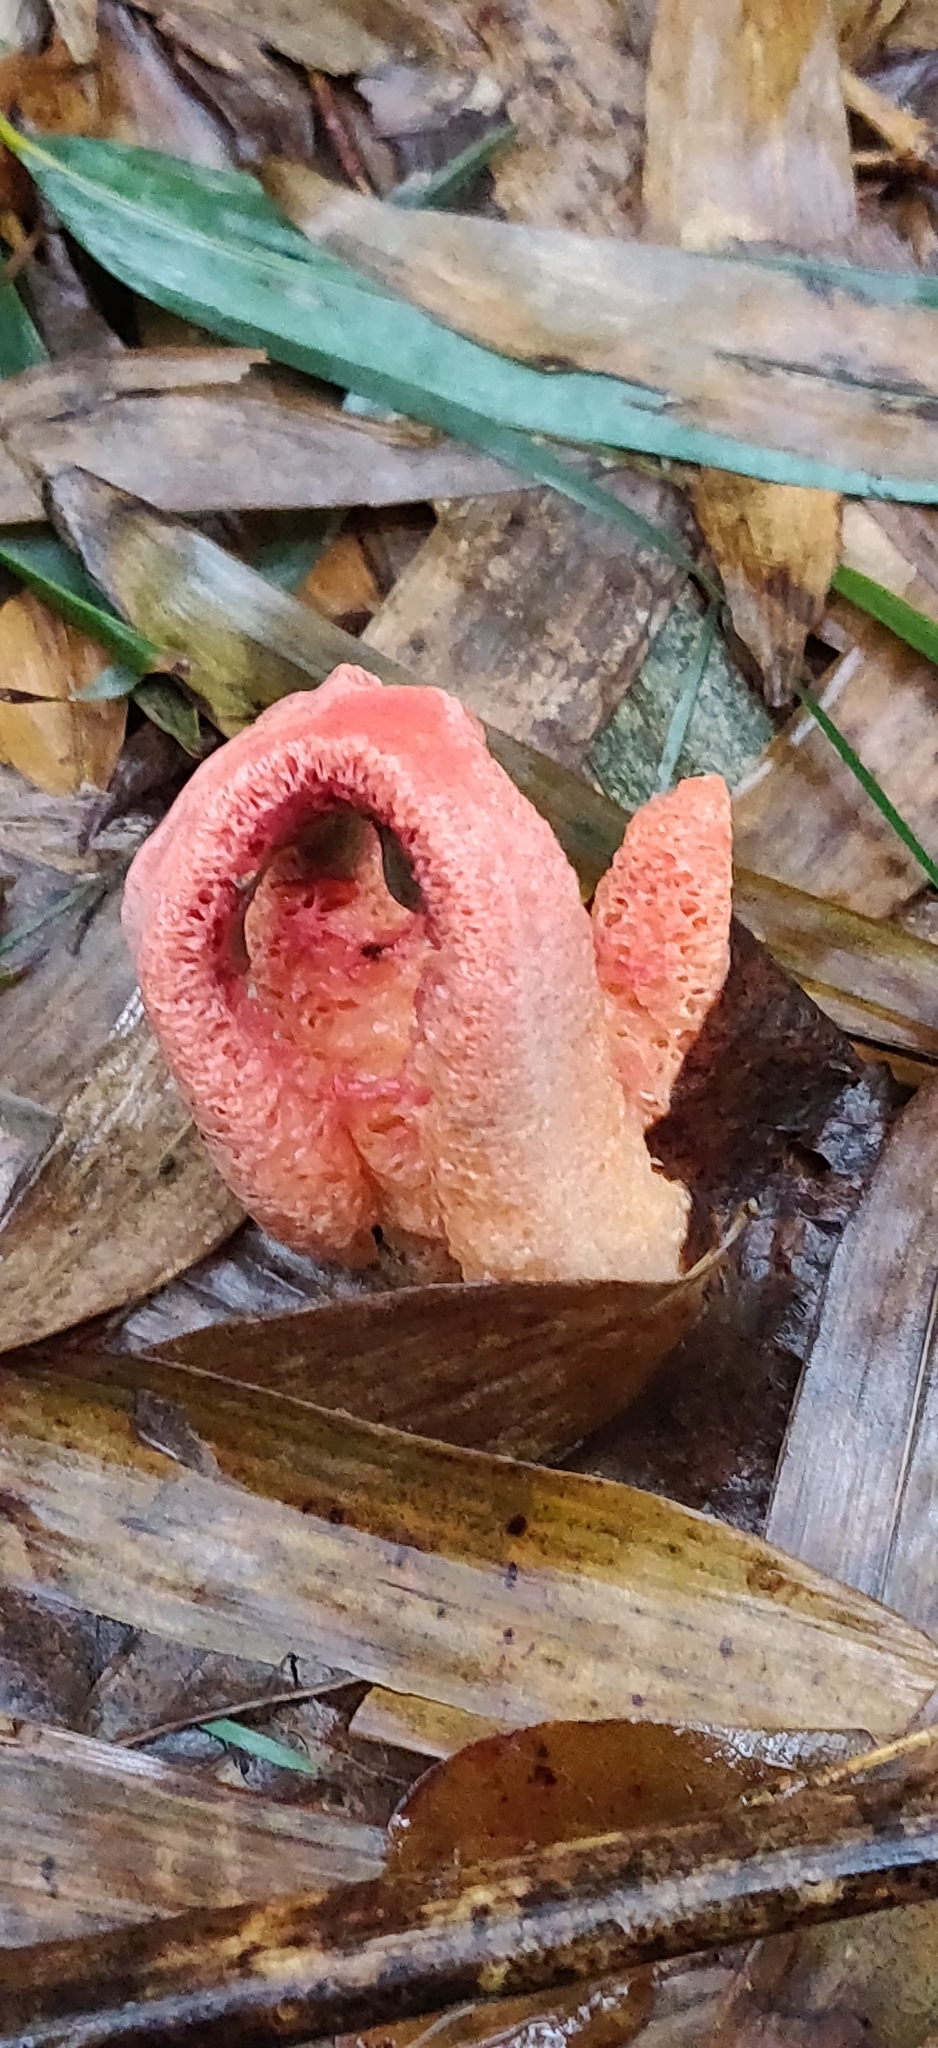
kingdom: Fungi
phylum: Basidiomycota
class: Agaricomycetes
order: Phallales
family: Phallaceae
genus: Clathrus
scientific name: Clathrus columnatus
